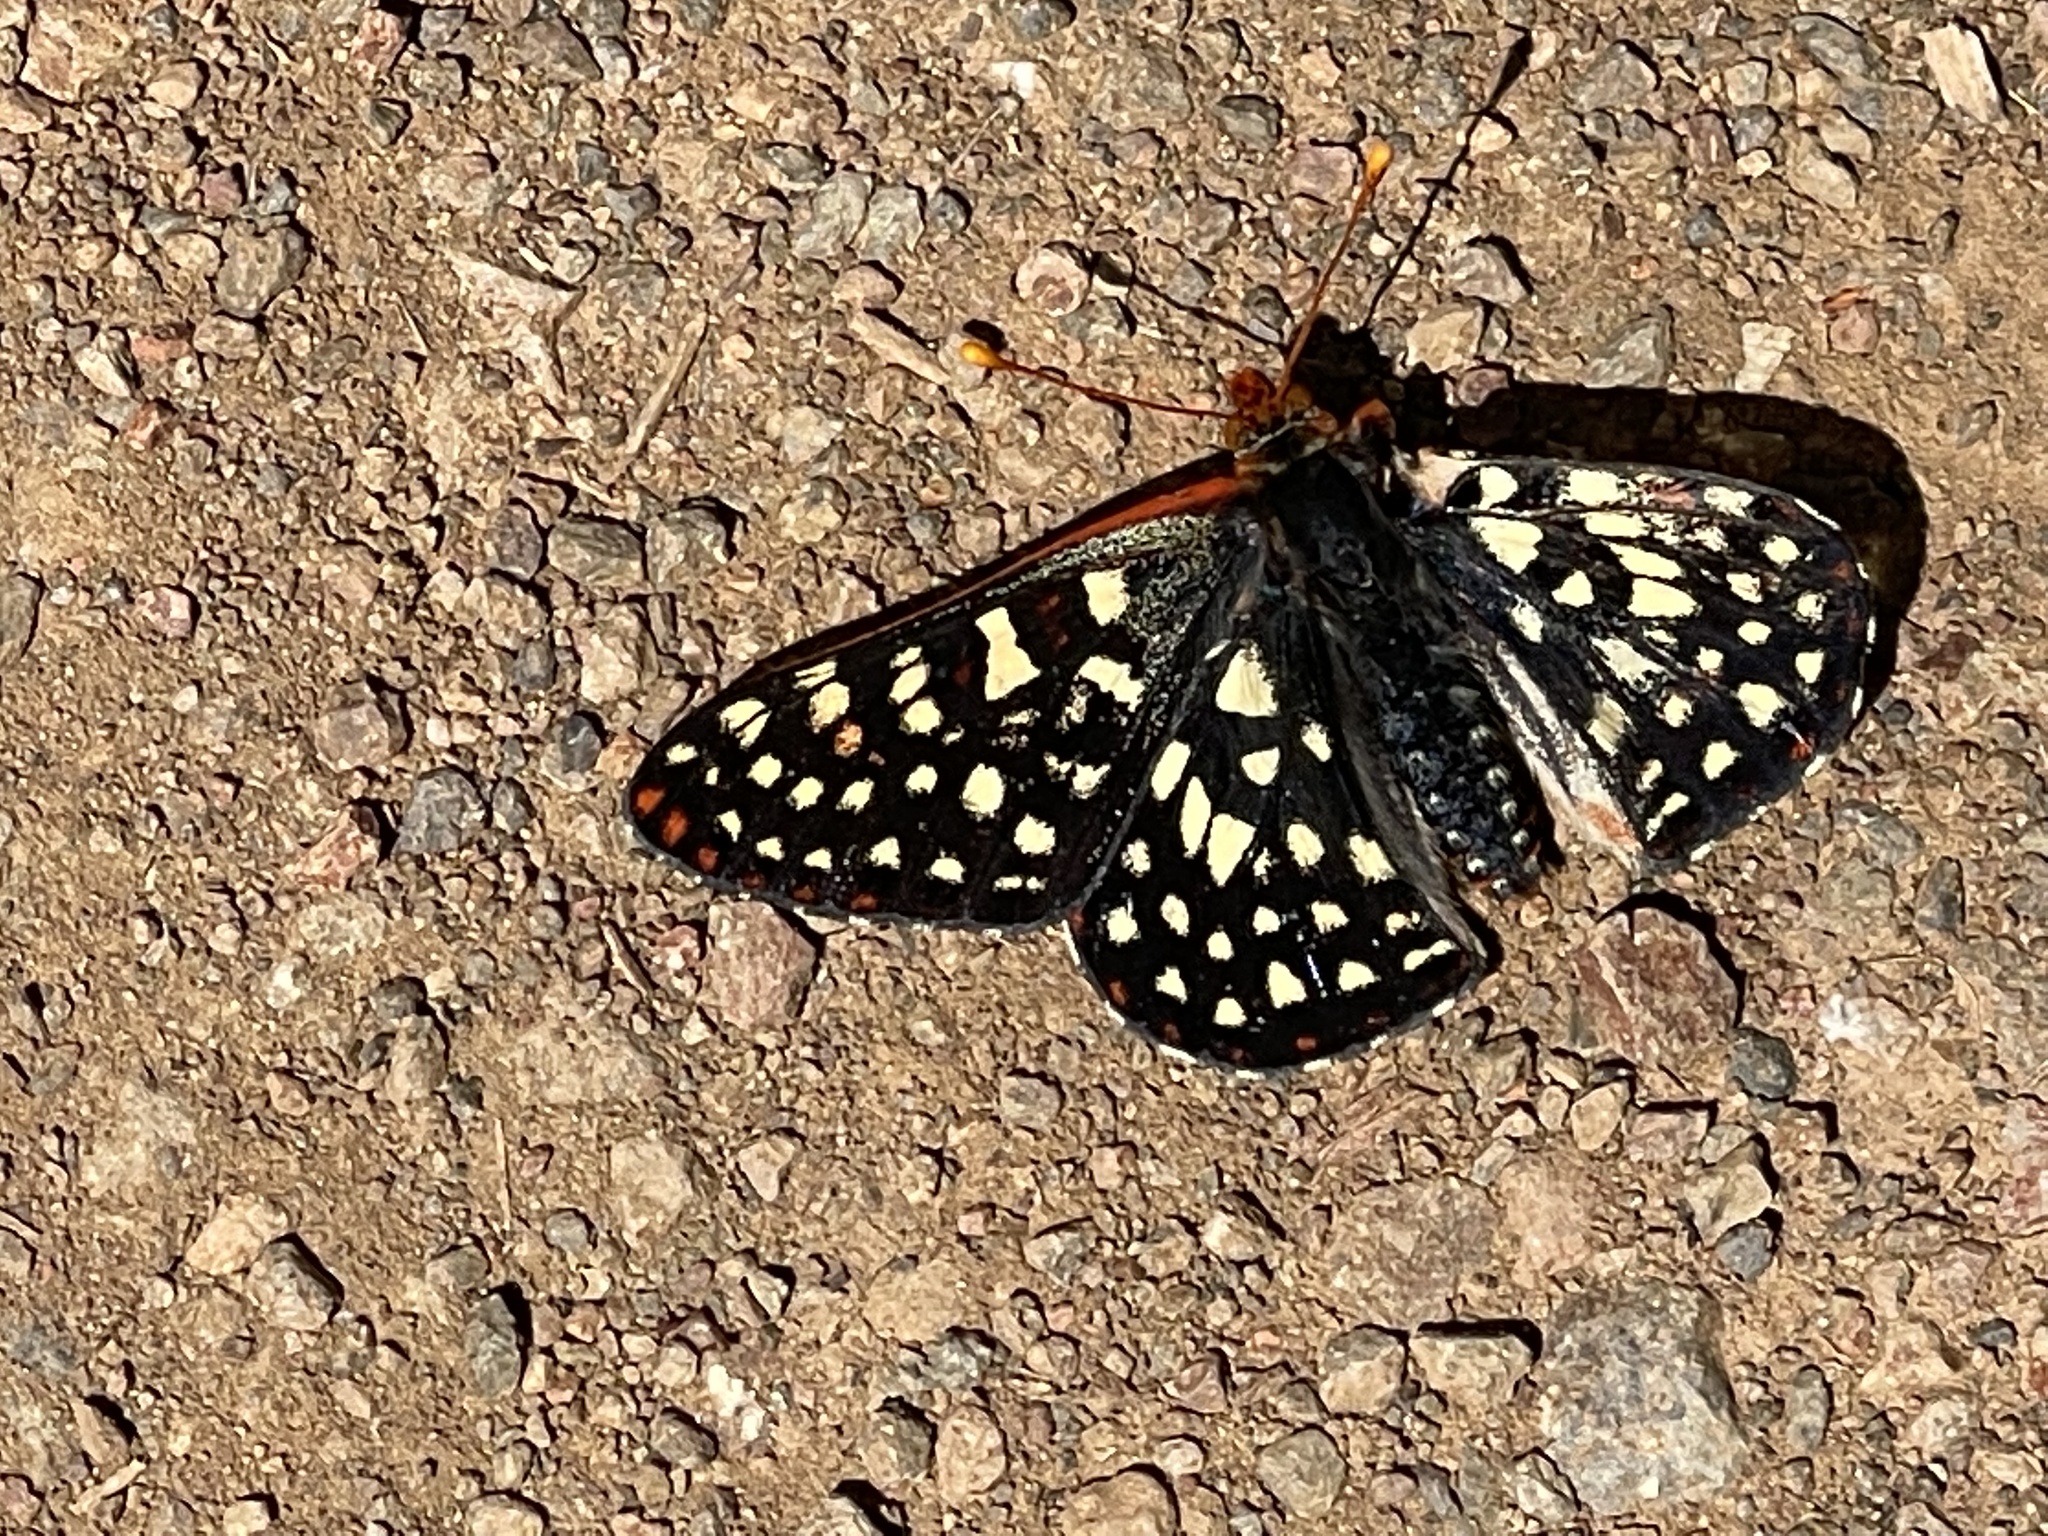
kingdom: Animalia
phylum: Arthropoda
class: Insecta
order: Lepidoptera
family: Nymphalidae
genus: Occidryas
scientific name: Occidryas chalcedona
